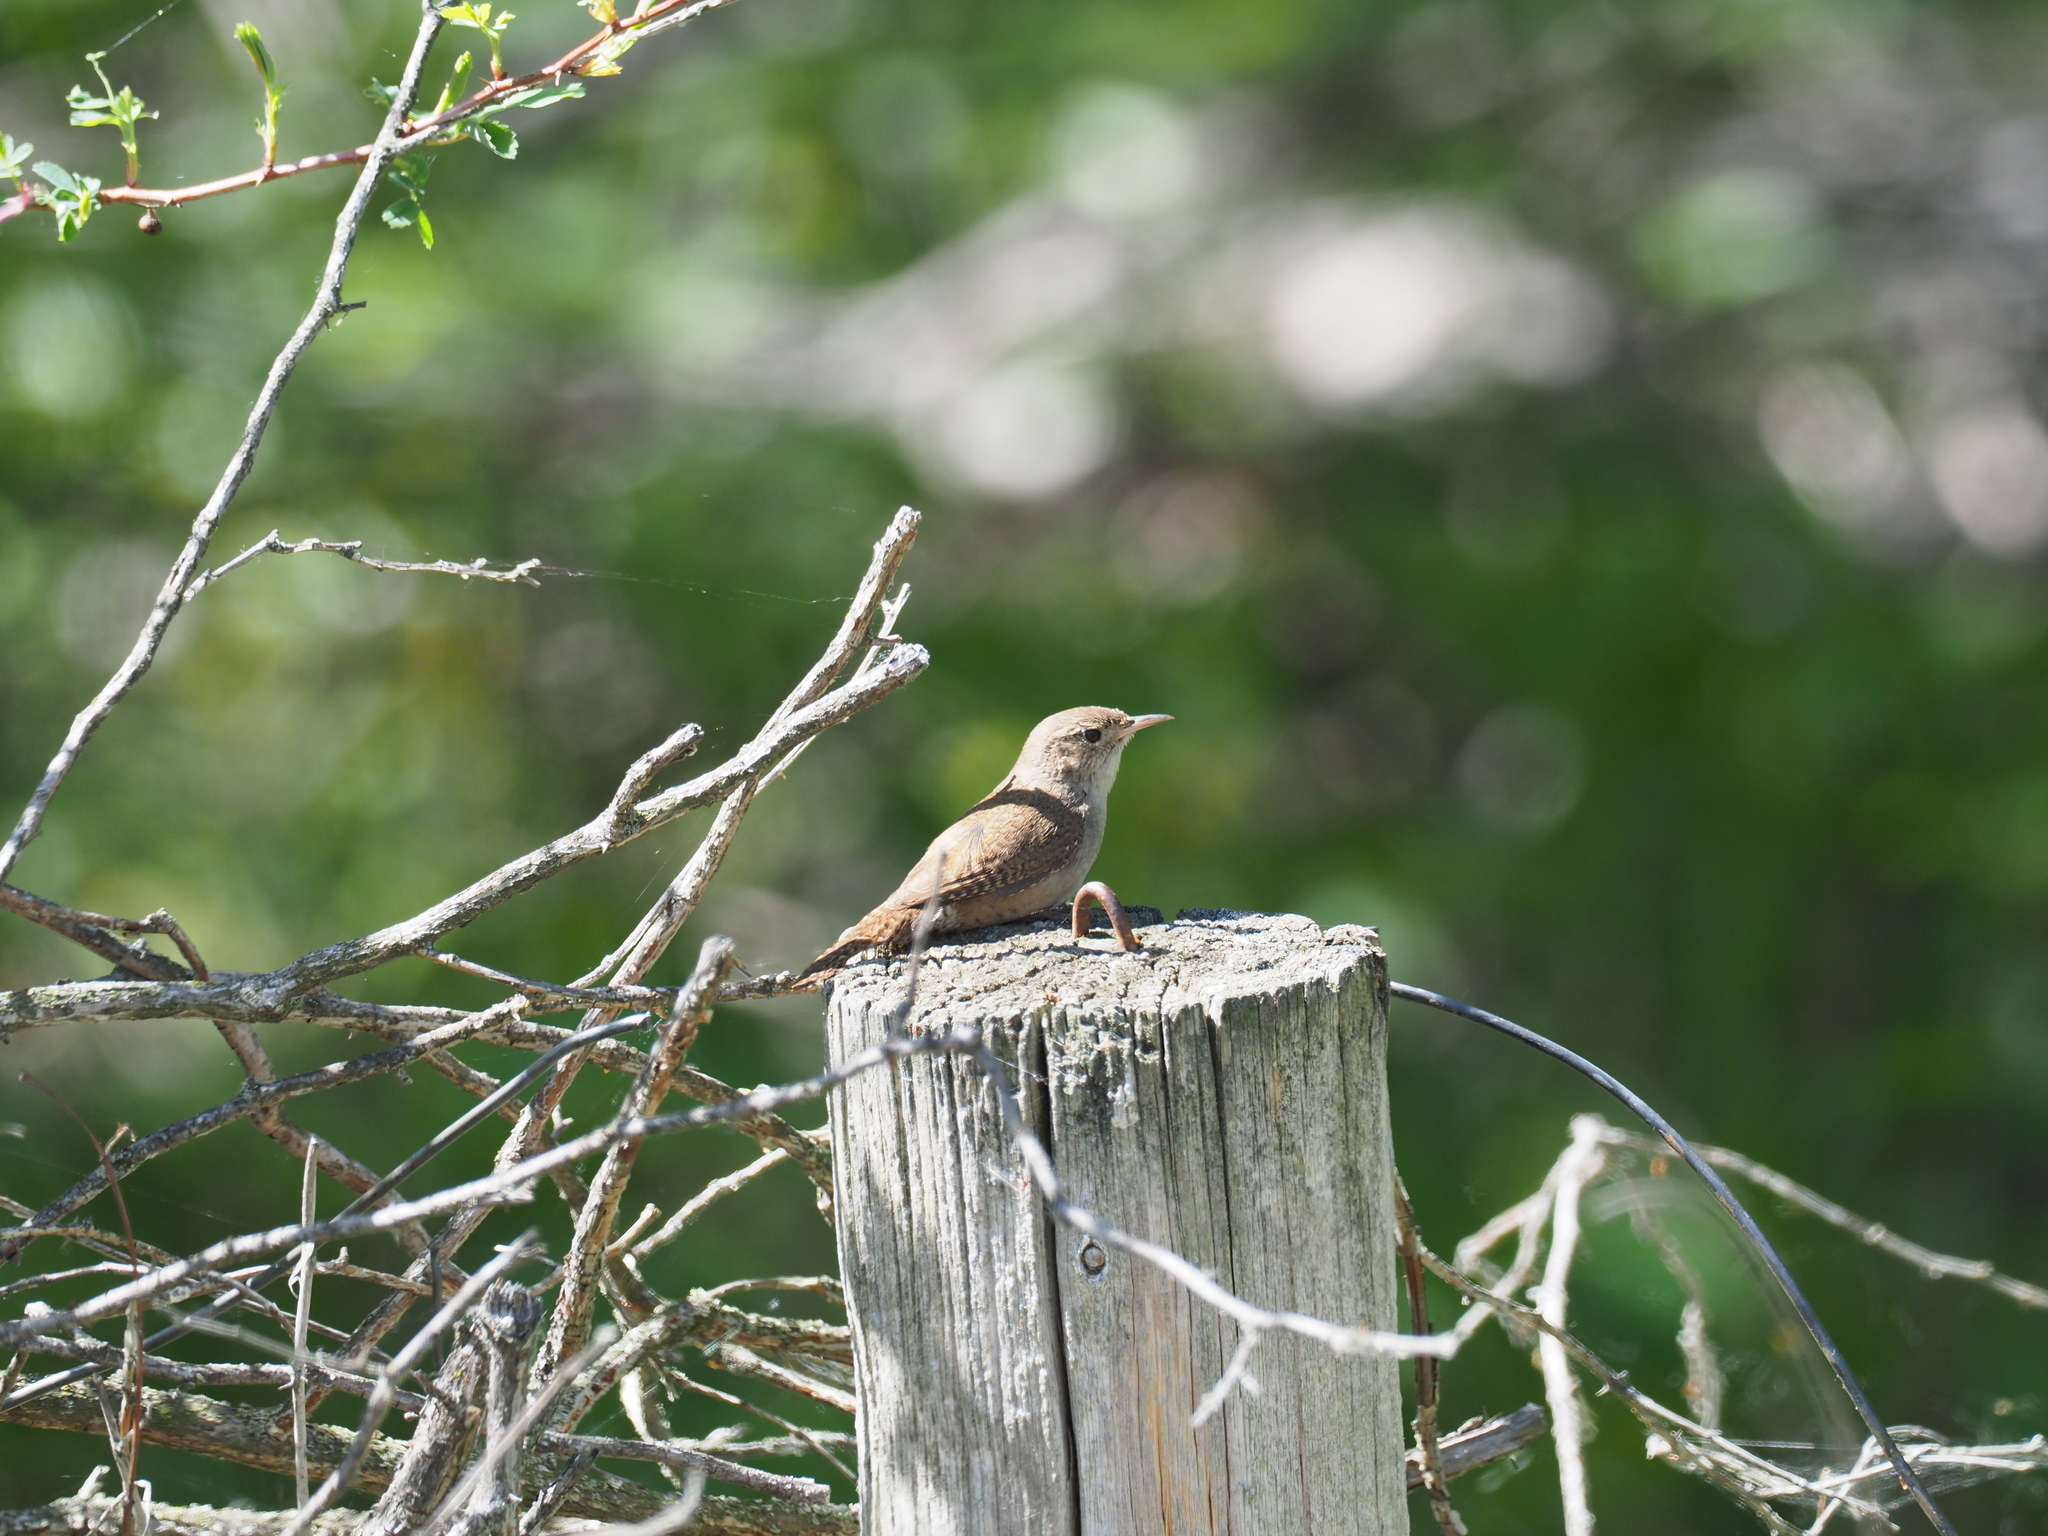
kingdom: Animalia
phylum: Chordata
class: Aves
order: Passeriformes
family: Troglodytidae
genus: Troglodytes
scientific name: Troglodytes aedon
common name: House wren
